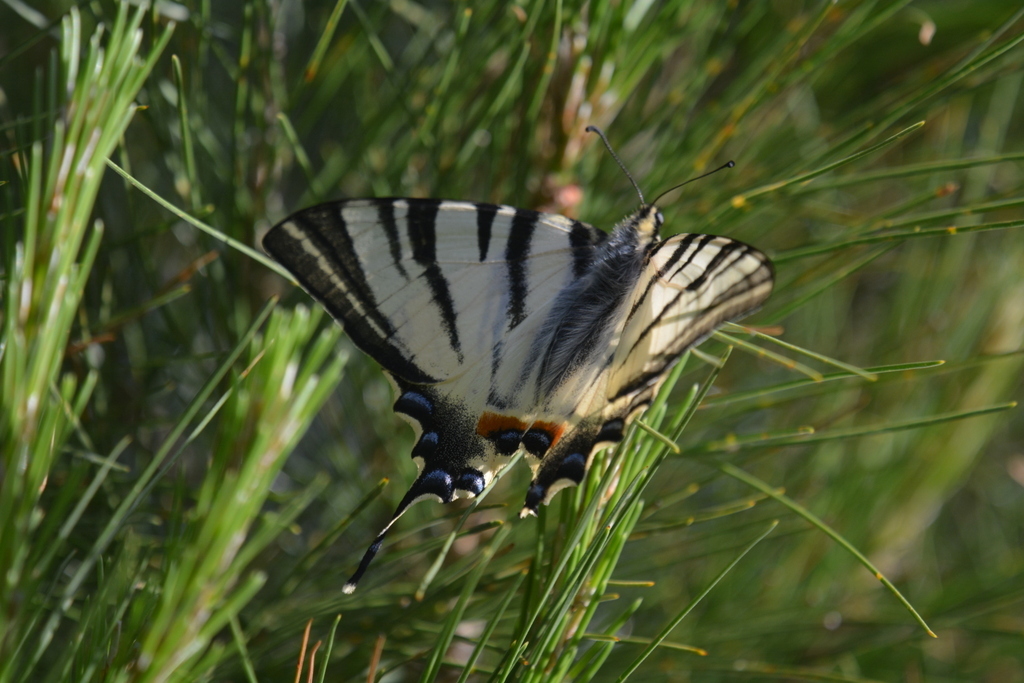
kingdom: Animalia
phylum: Arthropoda
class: Insecta
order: Lepidoptera
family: Papilionidae
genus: Iphiclides
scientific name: Iphiclides podalirius
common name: Scarce swallowtail
